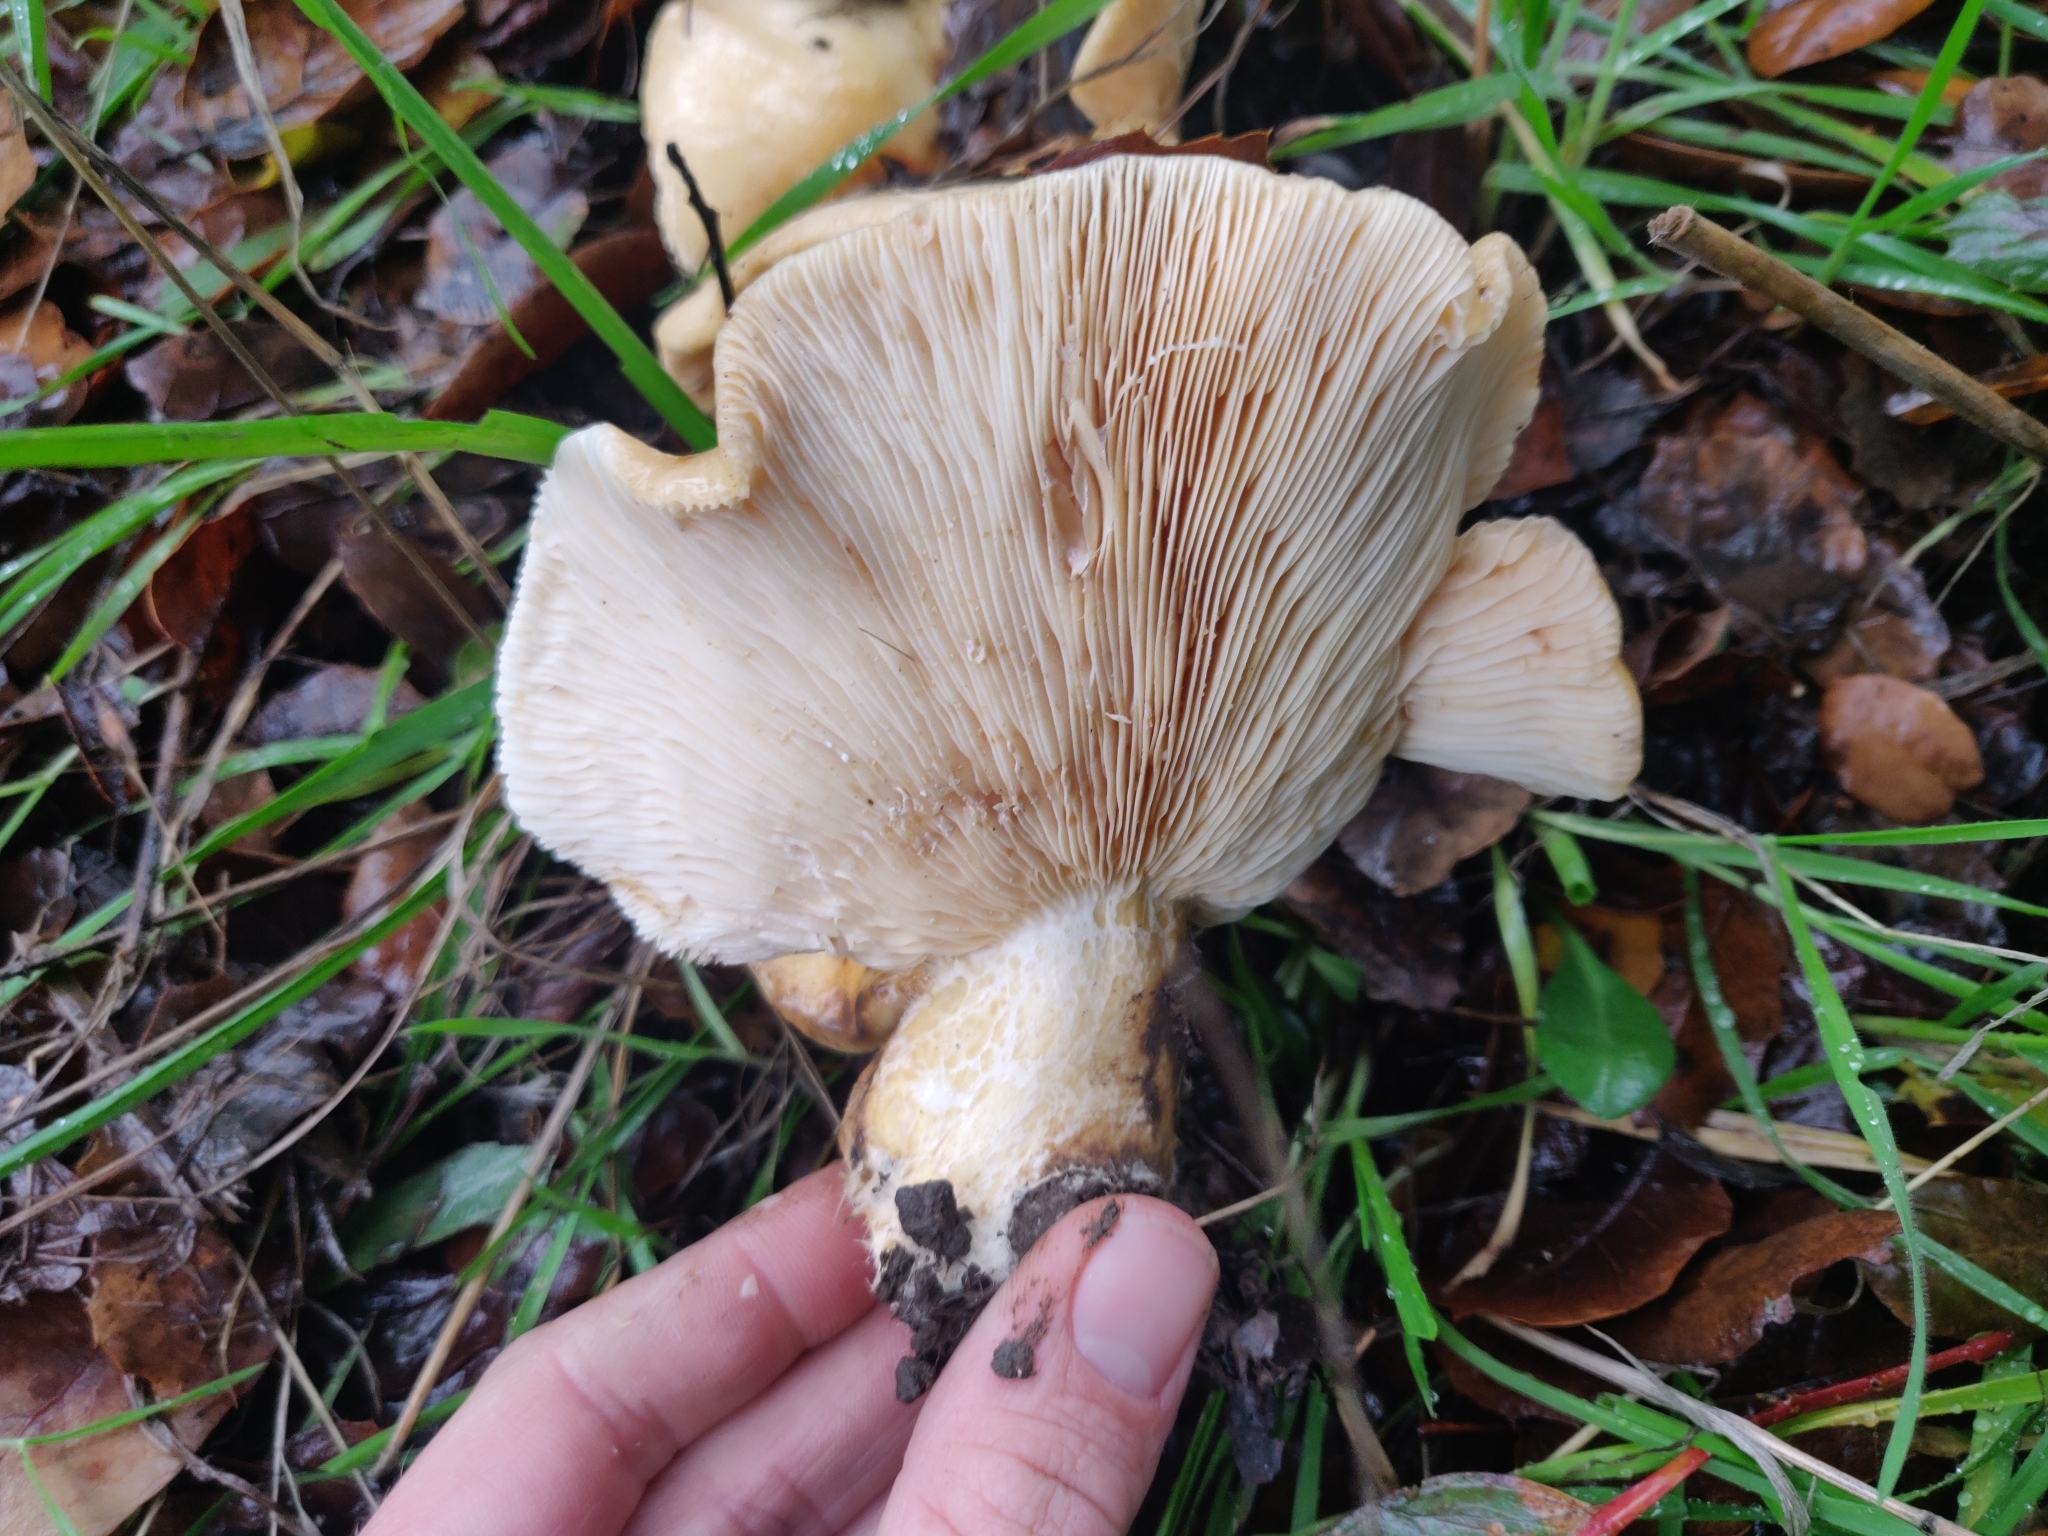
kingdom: Fungi
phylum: Basidiomycota
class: Agaricomycetes
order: Russulales
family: Russulaceae
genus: Lactarius
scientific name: Lactarius alnicola
